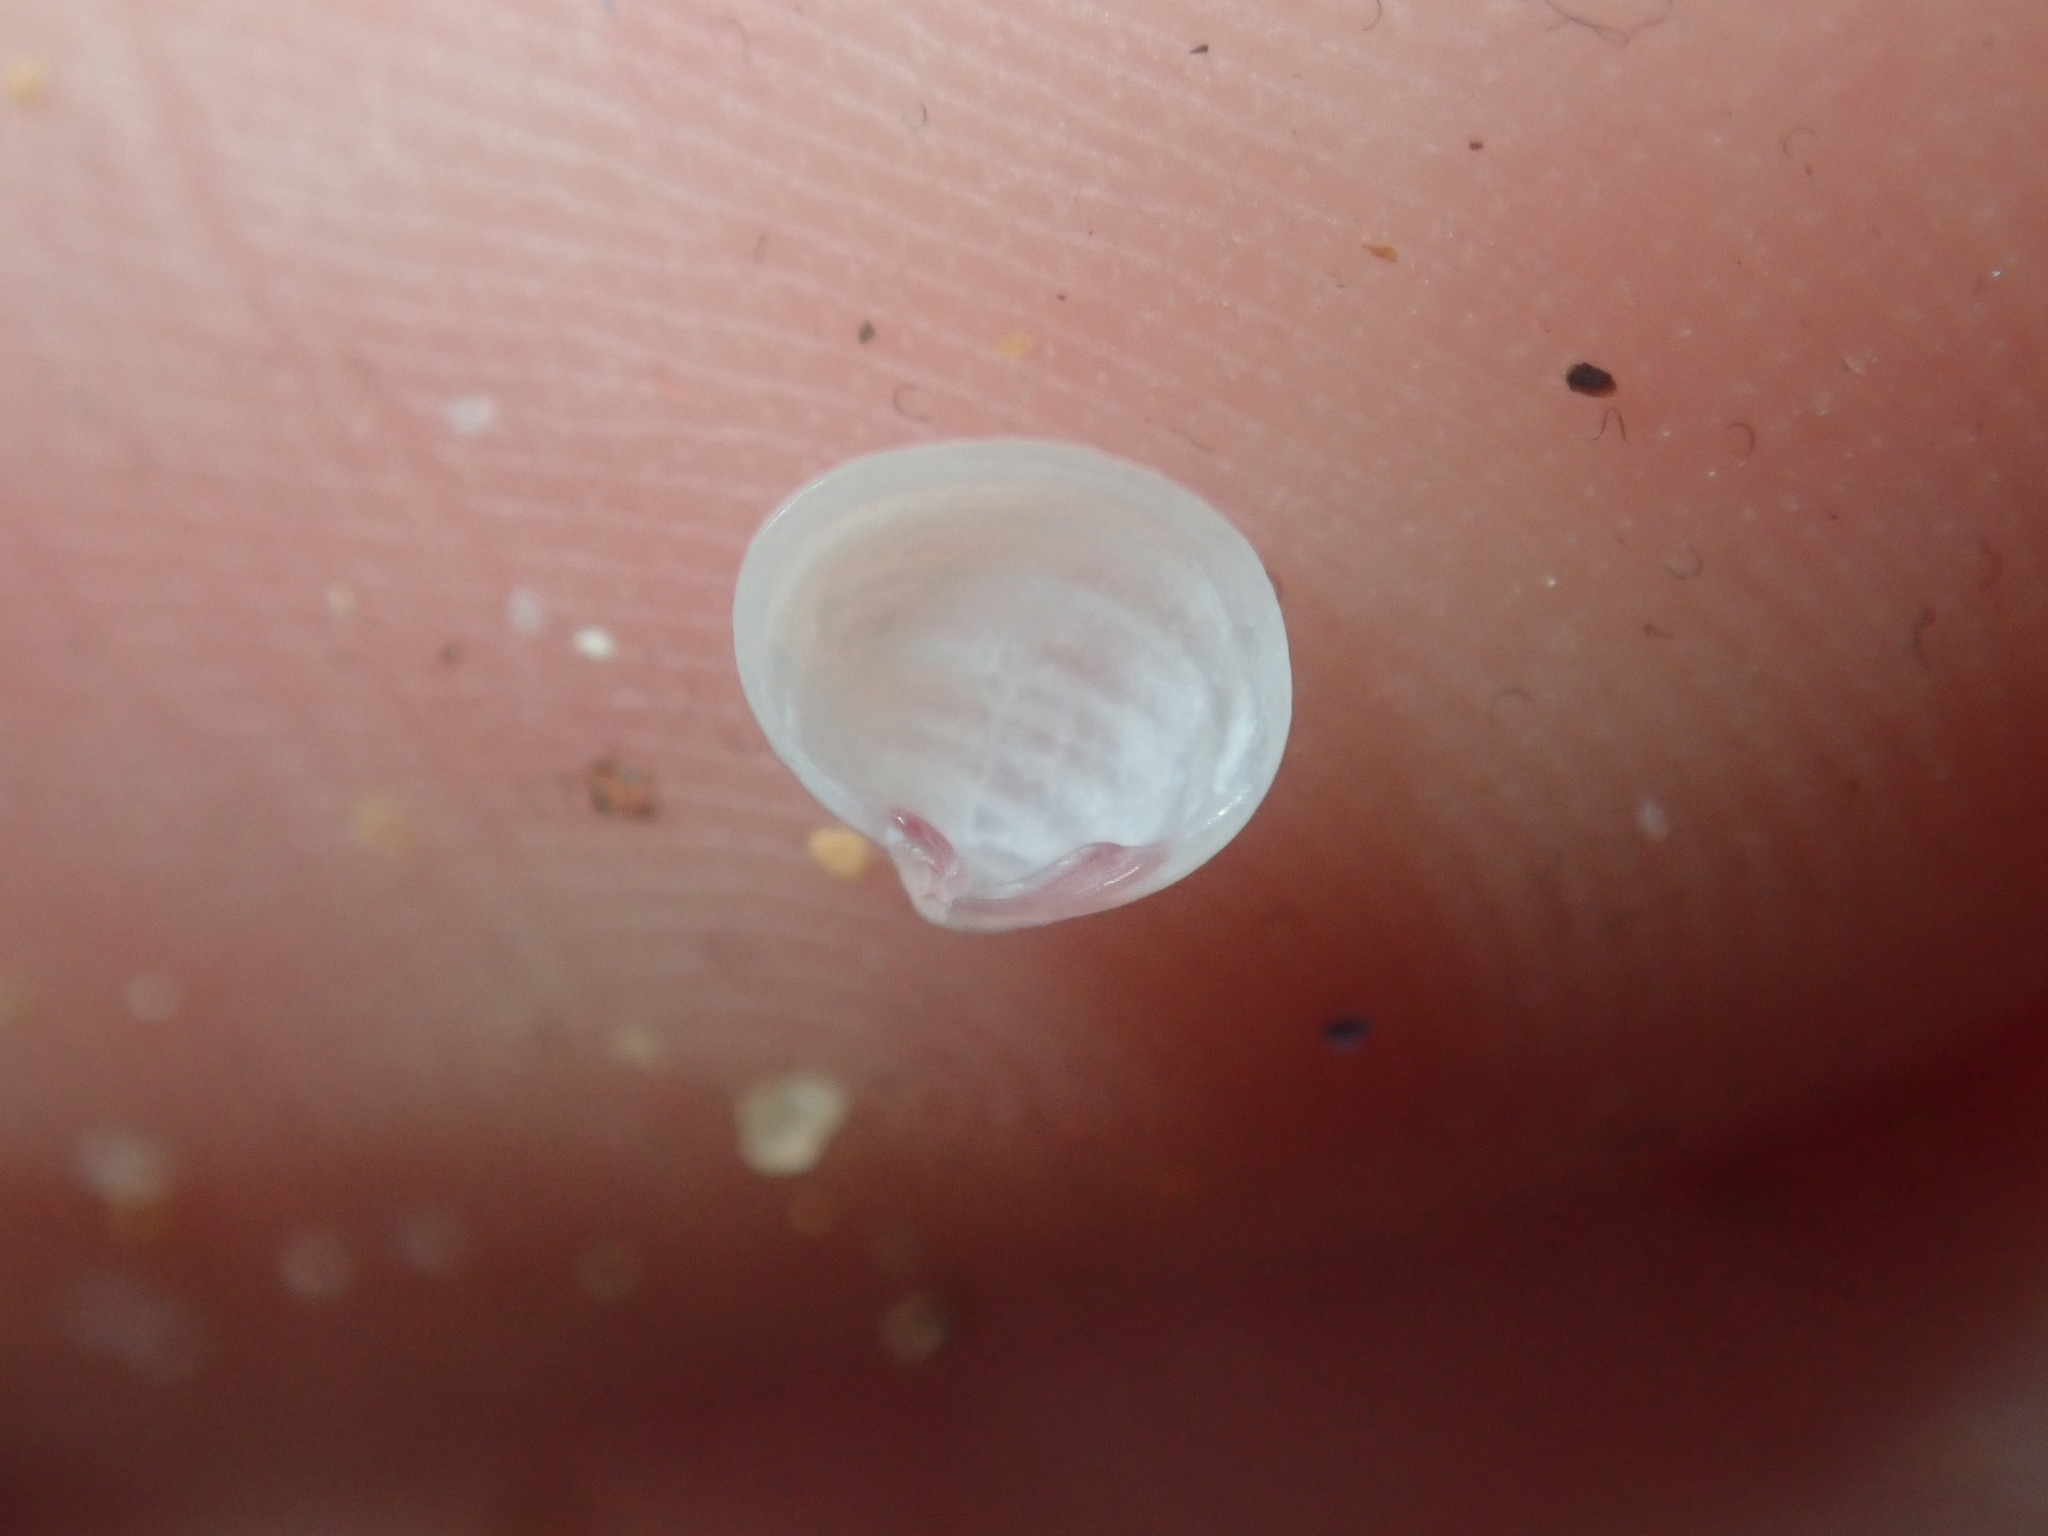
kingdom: Animalia
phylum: Mollusca
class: Bivalvia
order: Galeommatida
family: Lasaeidae
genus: Lasaea
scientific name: Lasaea australis
